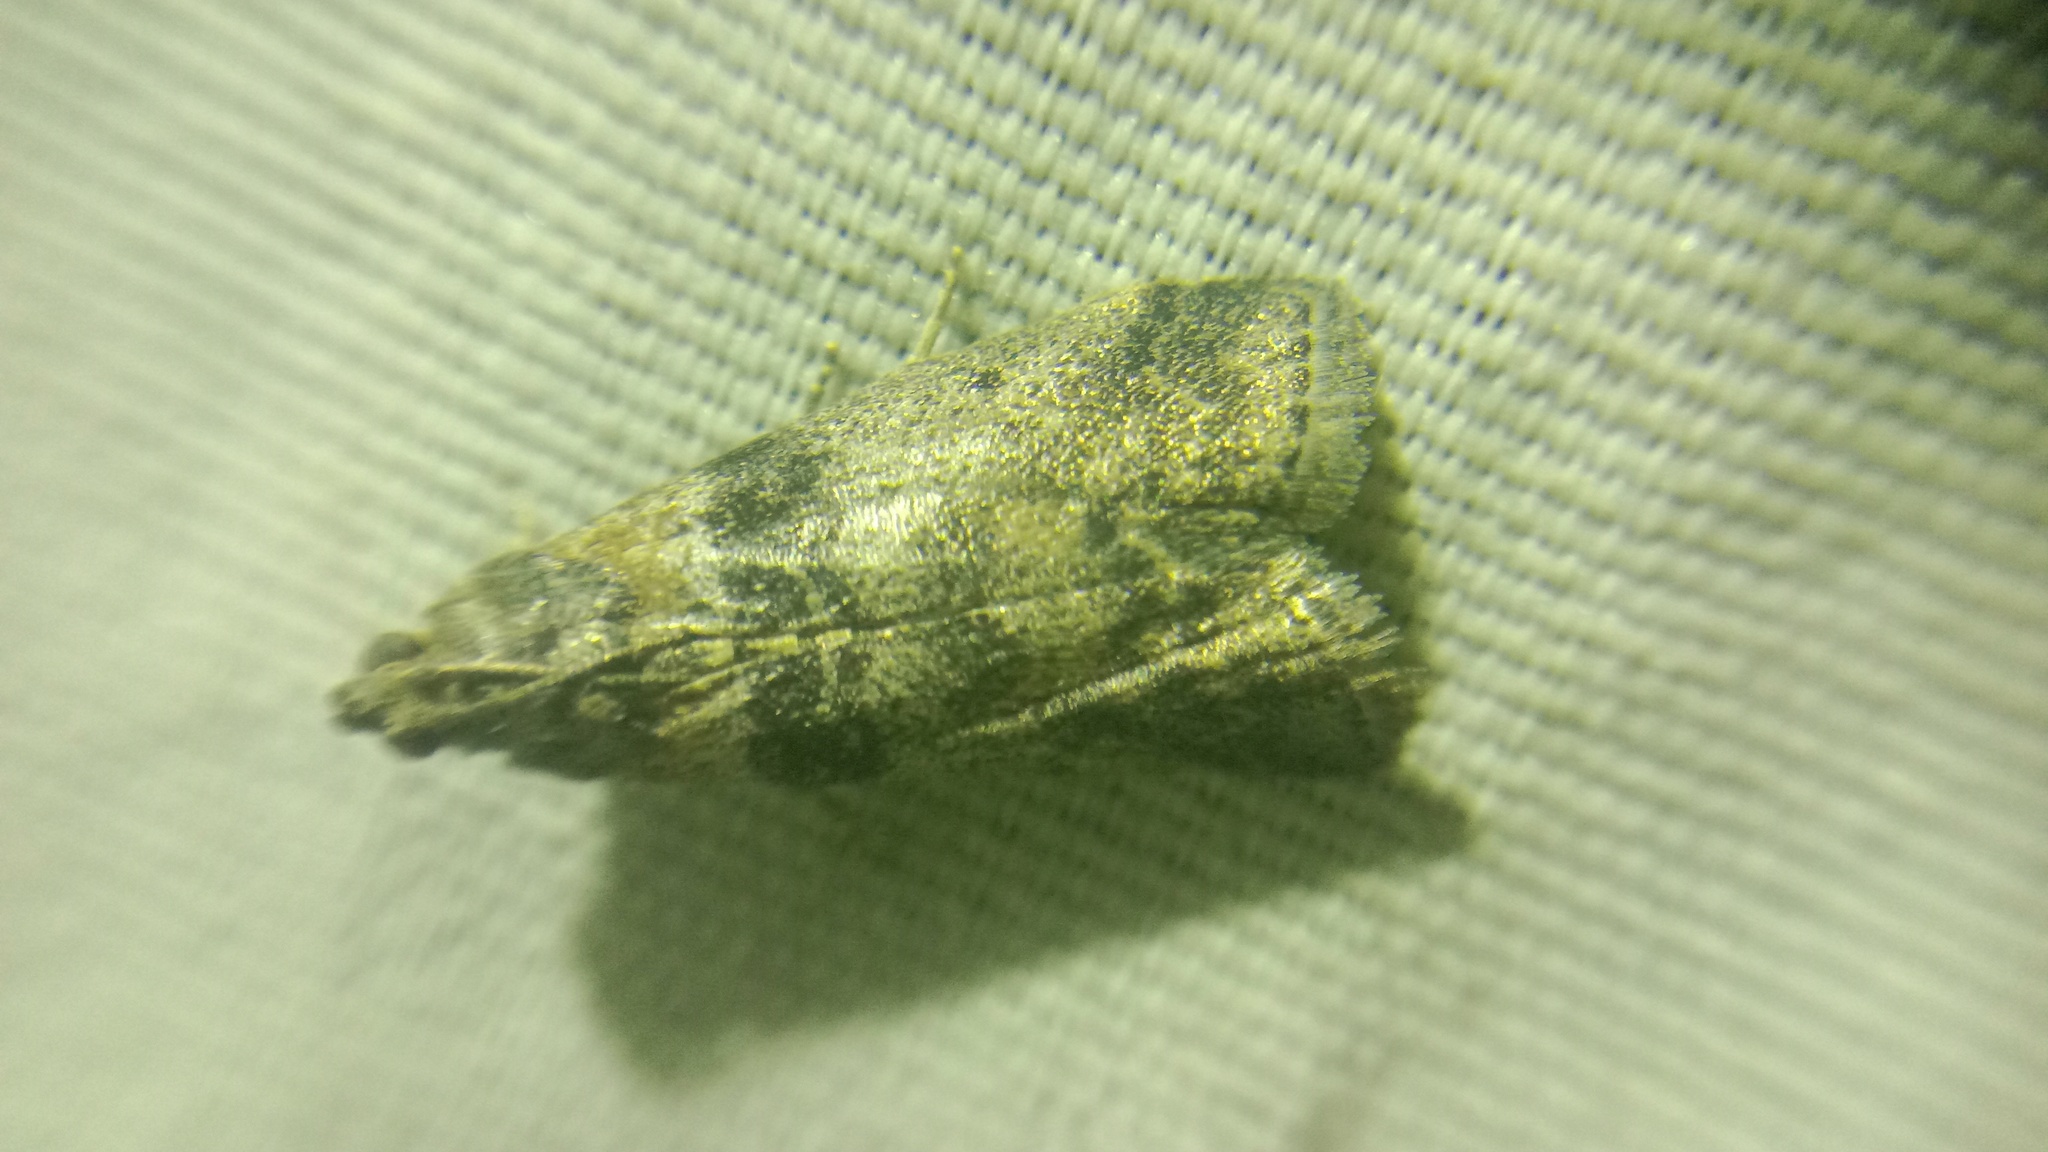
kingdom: Animalia
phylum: Arthropoda
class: Insecta
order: Lepidoptera
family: Pyralidae
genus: Sciota
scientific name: Sciota rhenella
